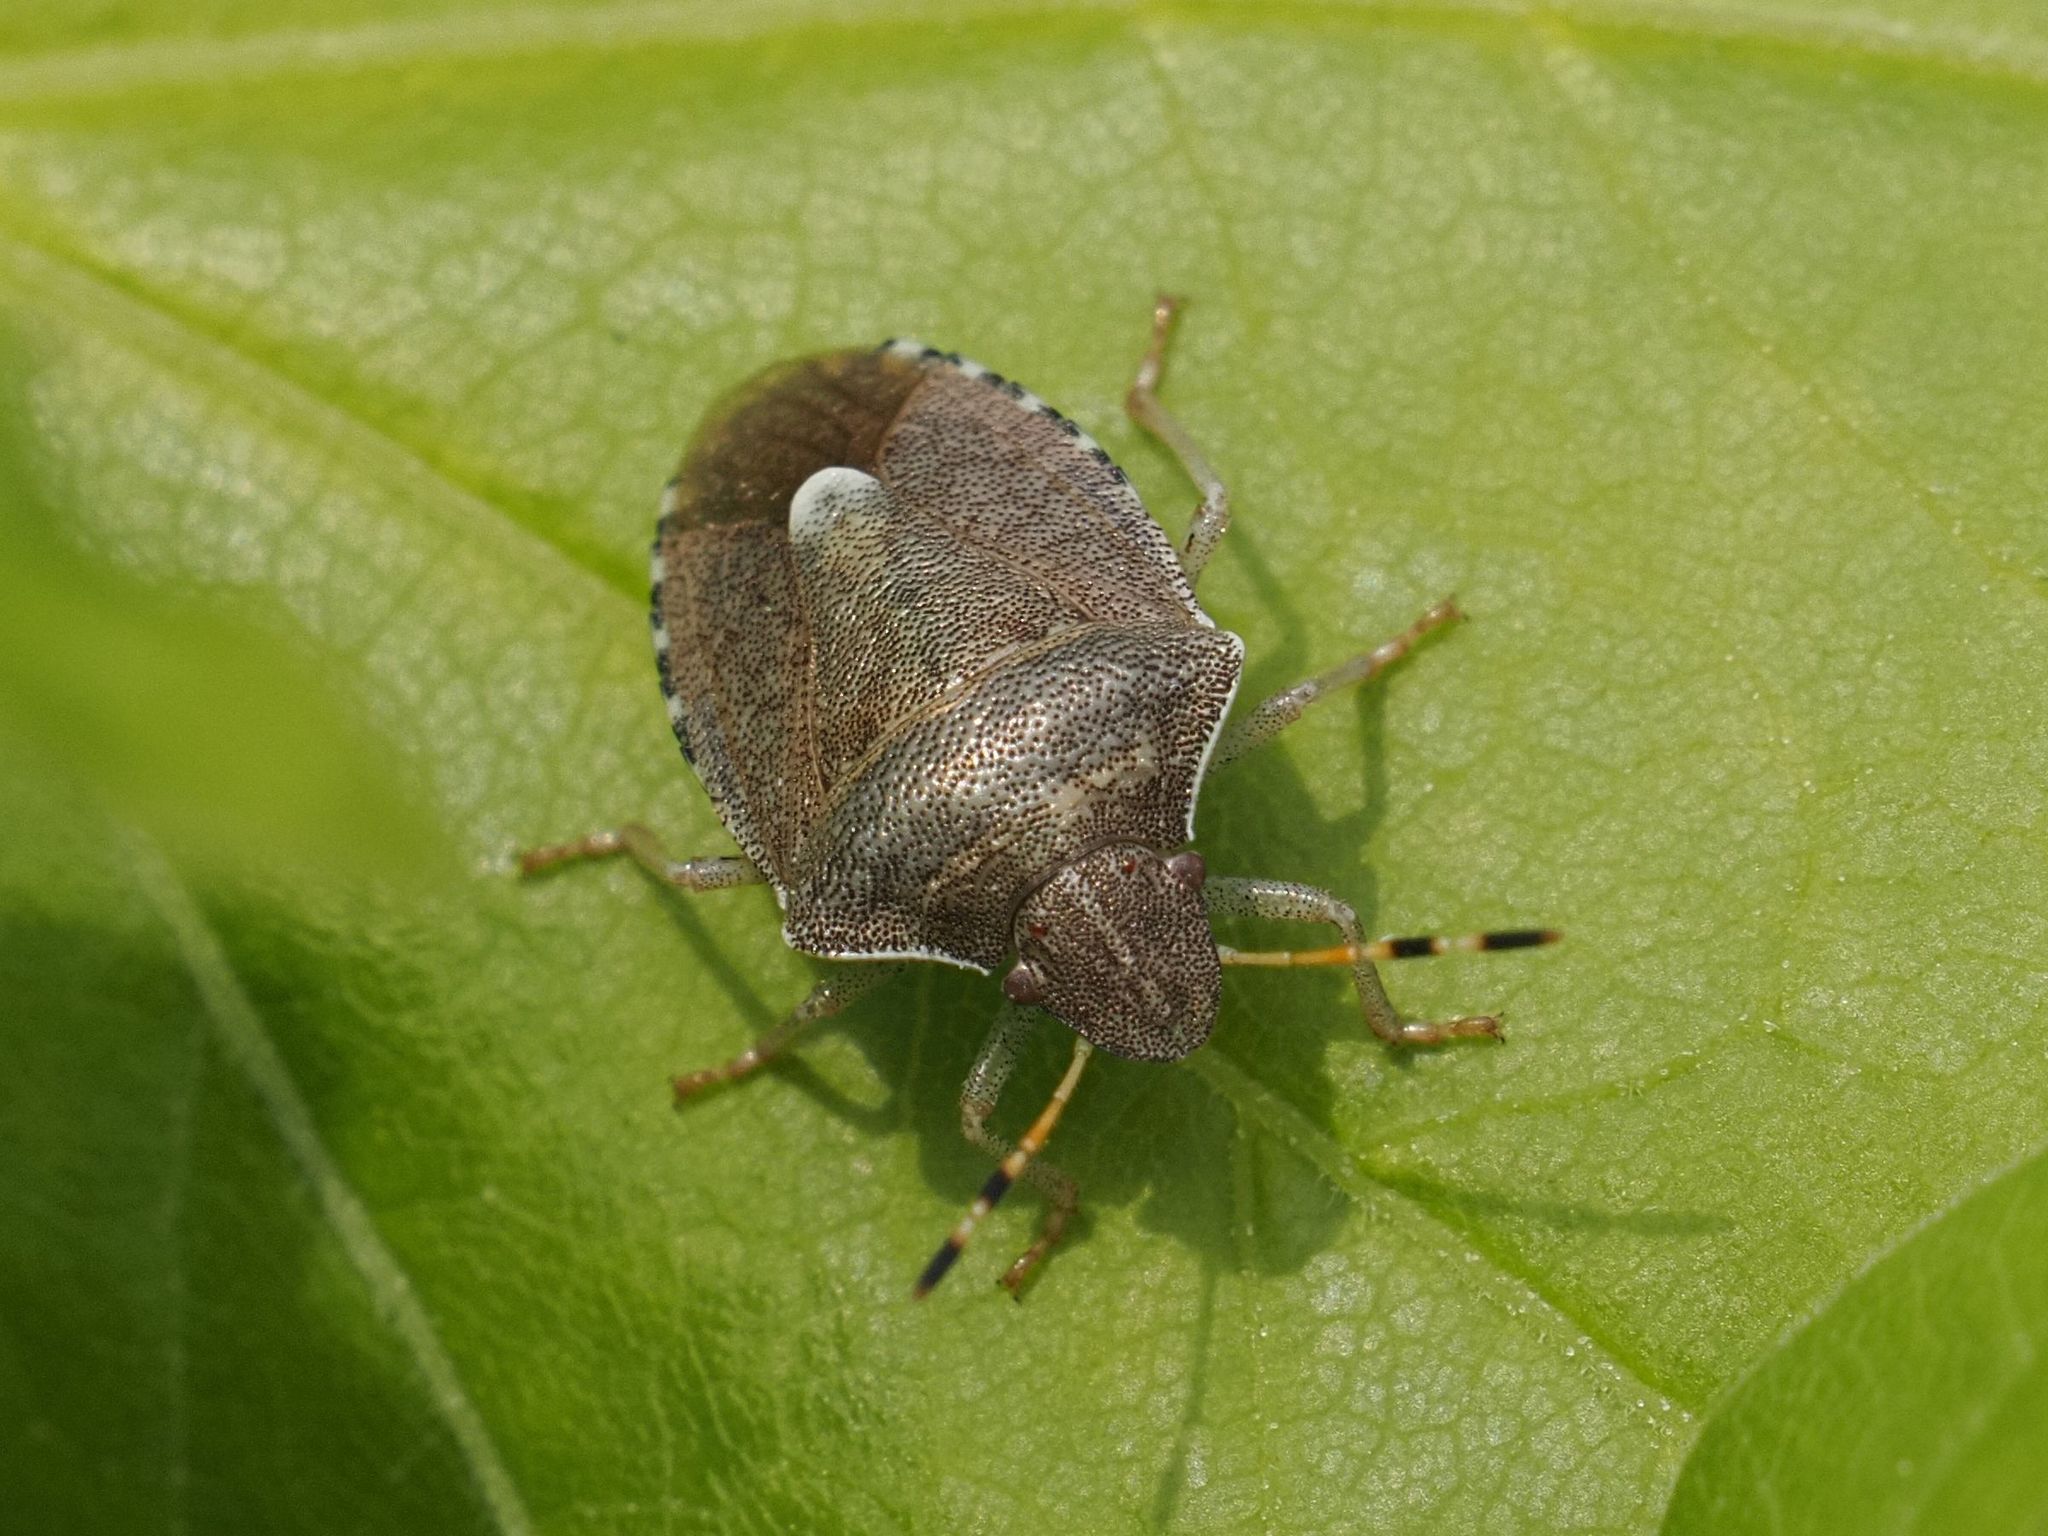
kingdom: Animalia
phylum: Arthropoda
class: Insecta
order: Hemiptera
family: Pentatomidae
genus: Holcostethus
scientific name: Holcostethus strictus
